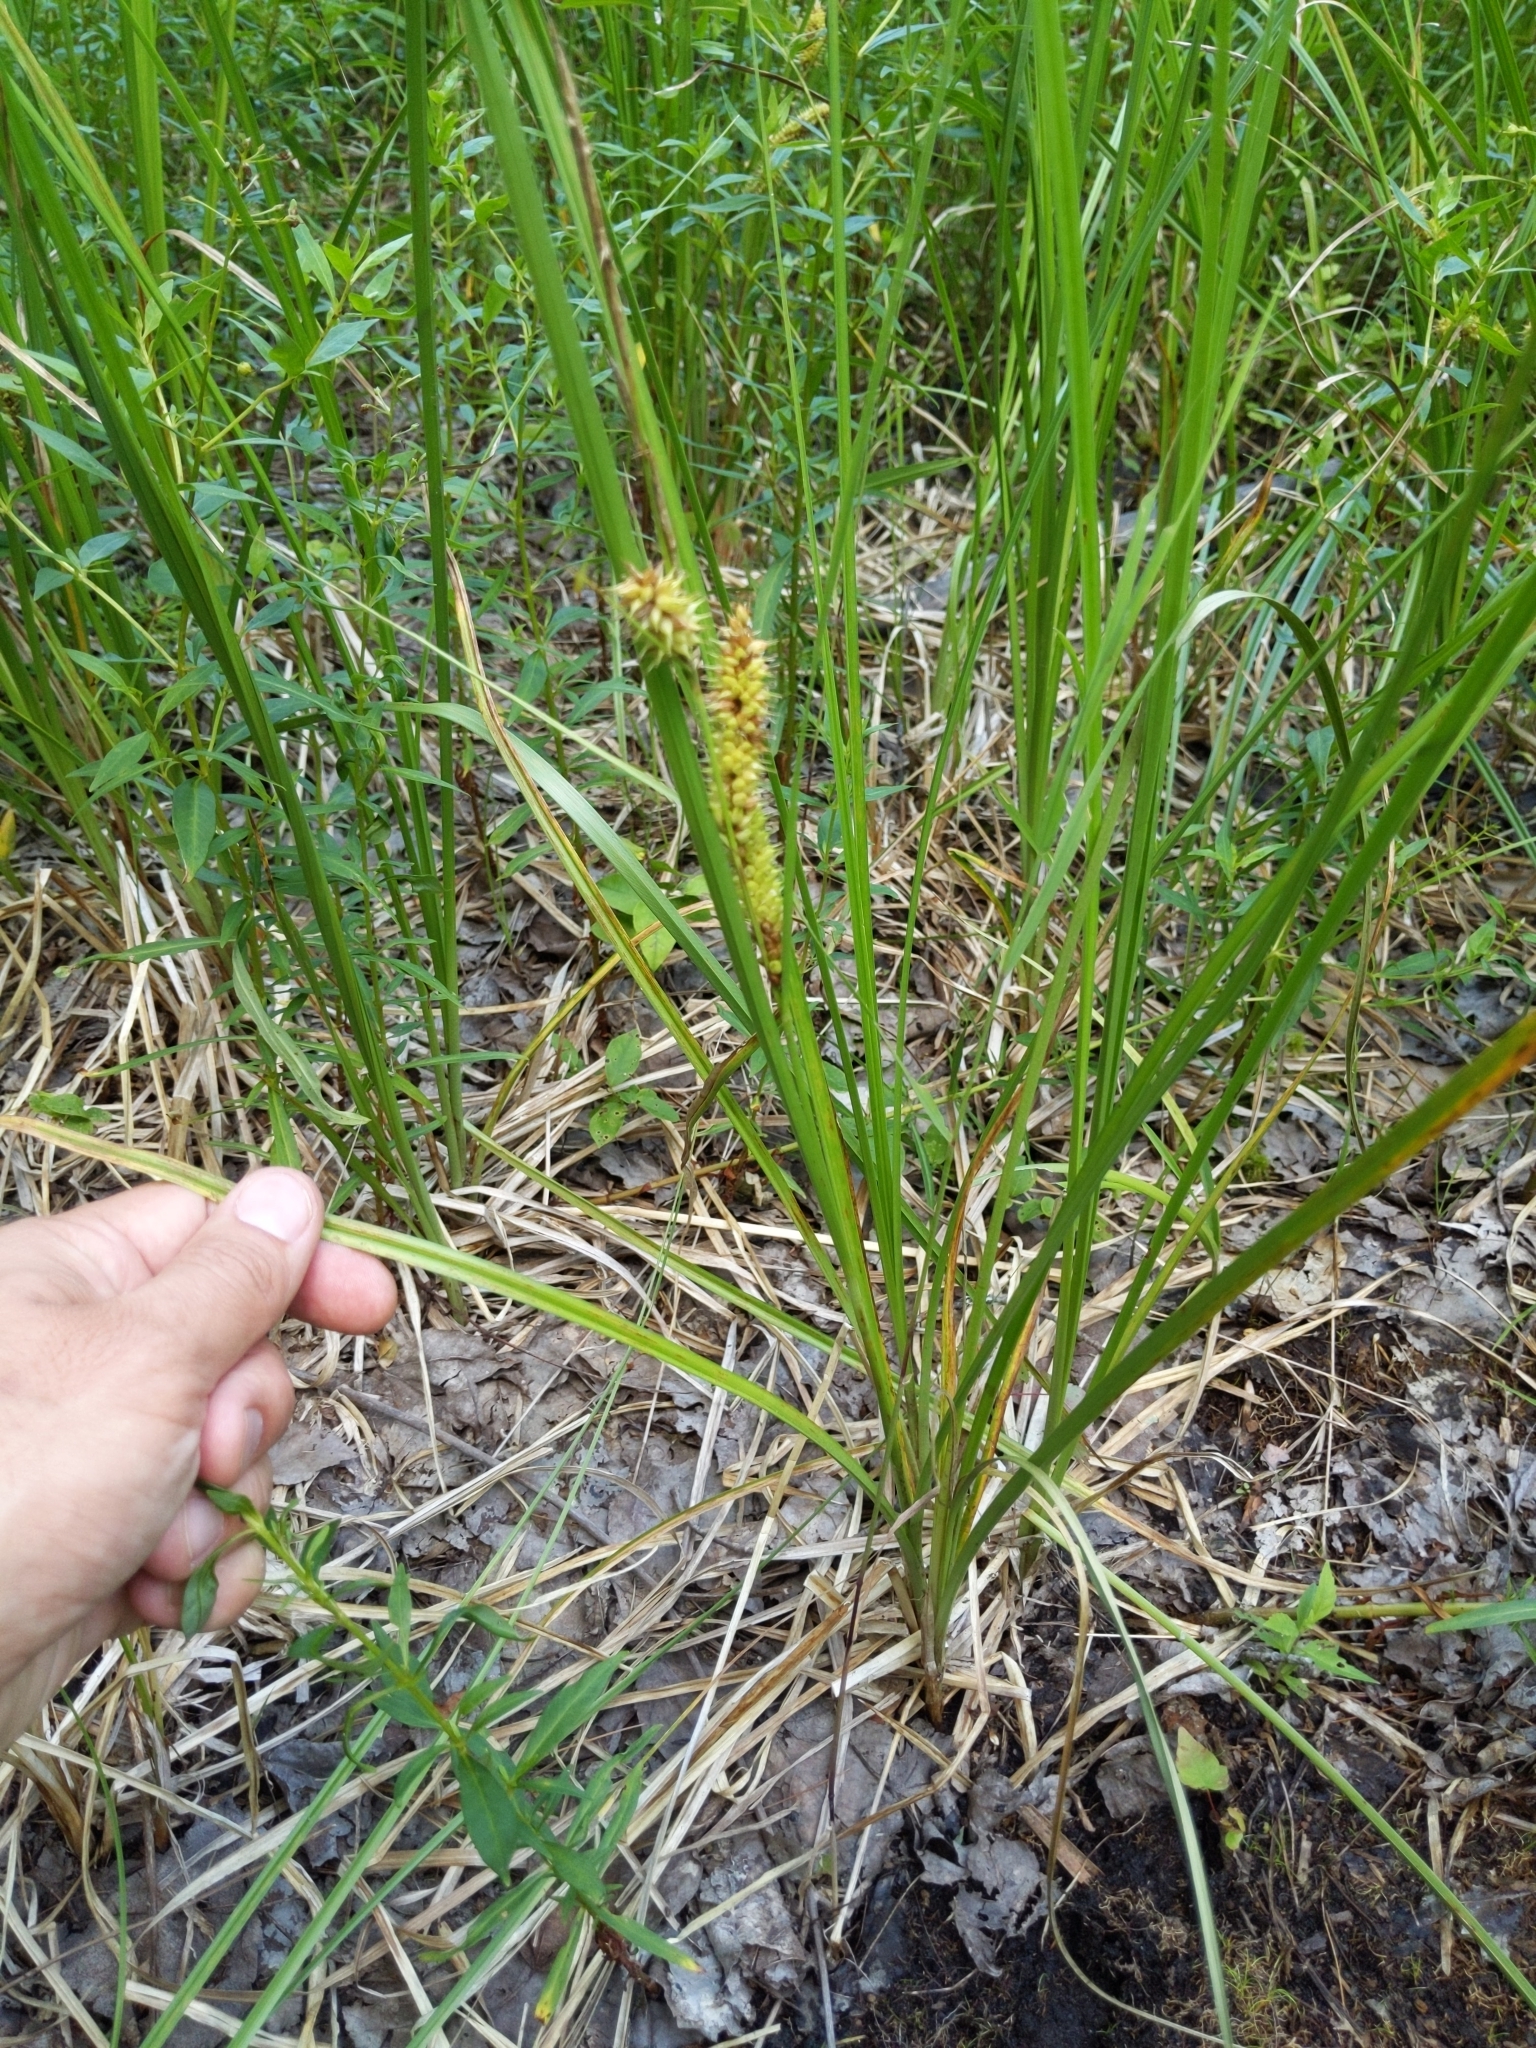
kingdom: Plantae
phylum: Tracheophyta
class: Liliopsida
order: Poales
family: Cyperaceae
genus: Carex
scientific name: Carex utriculata
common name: Beaked sedge
